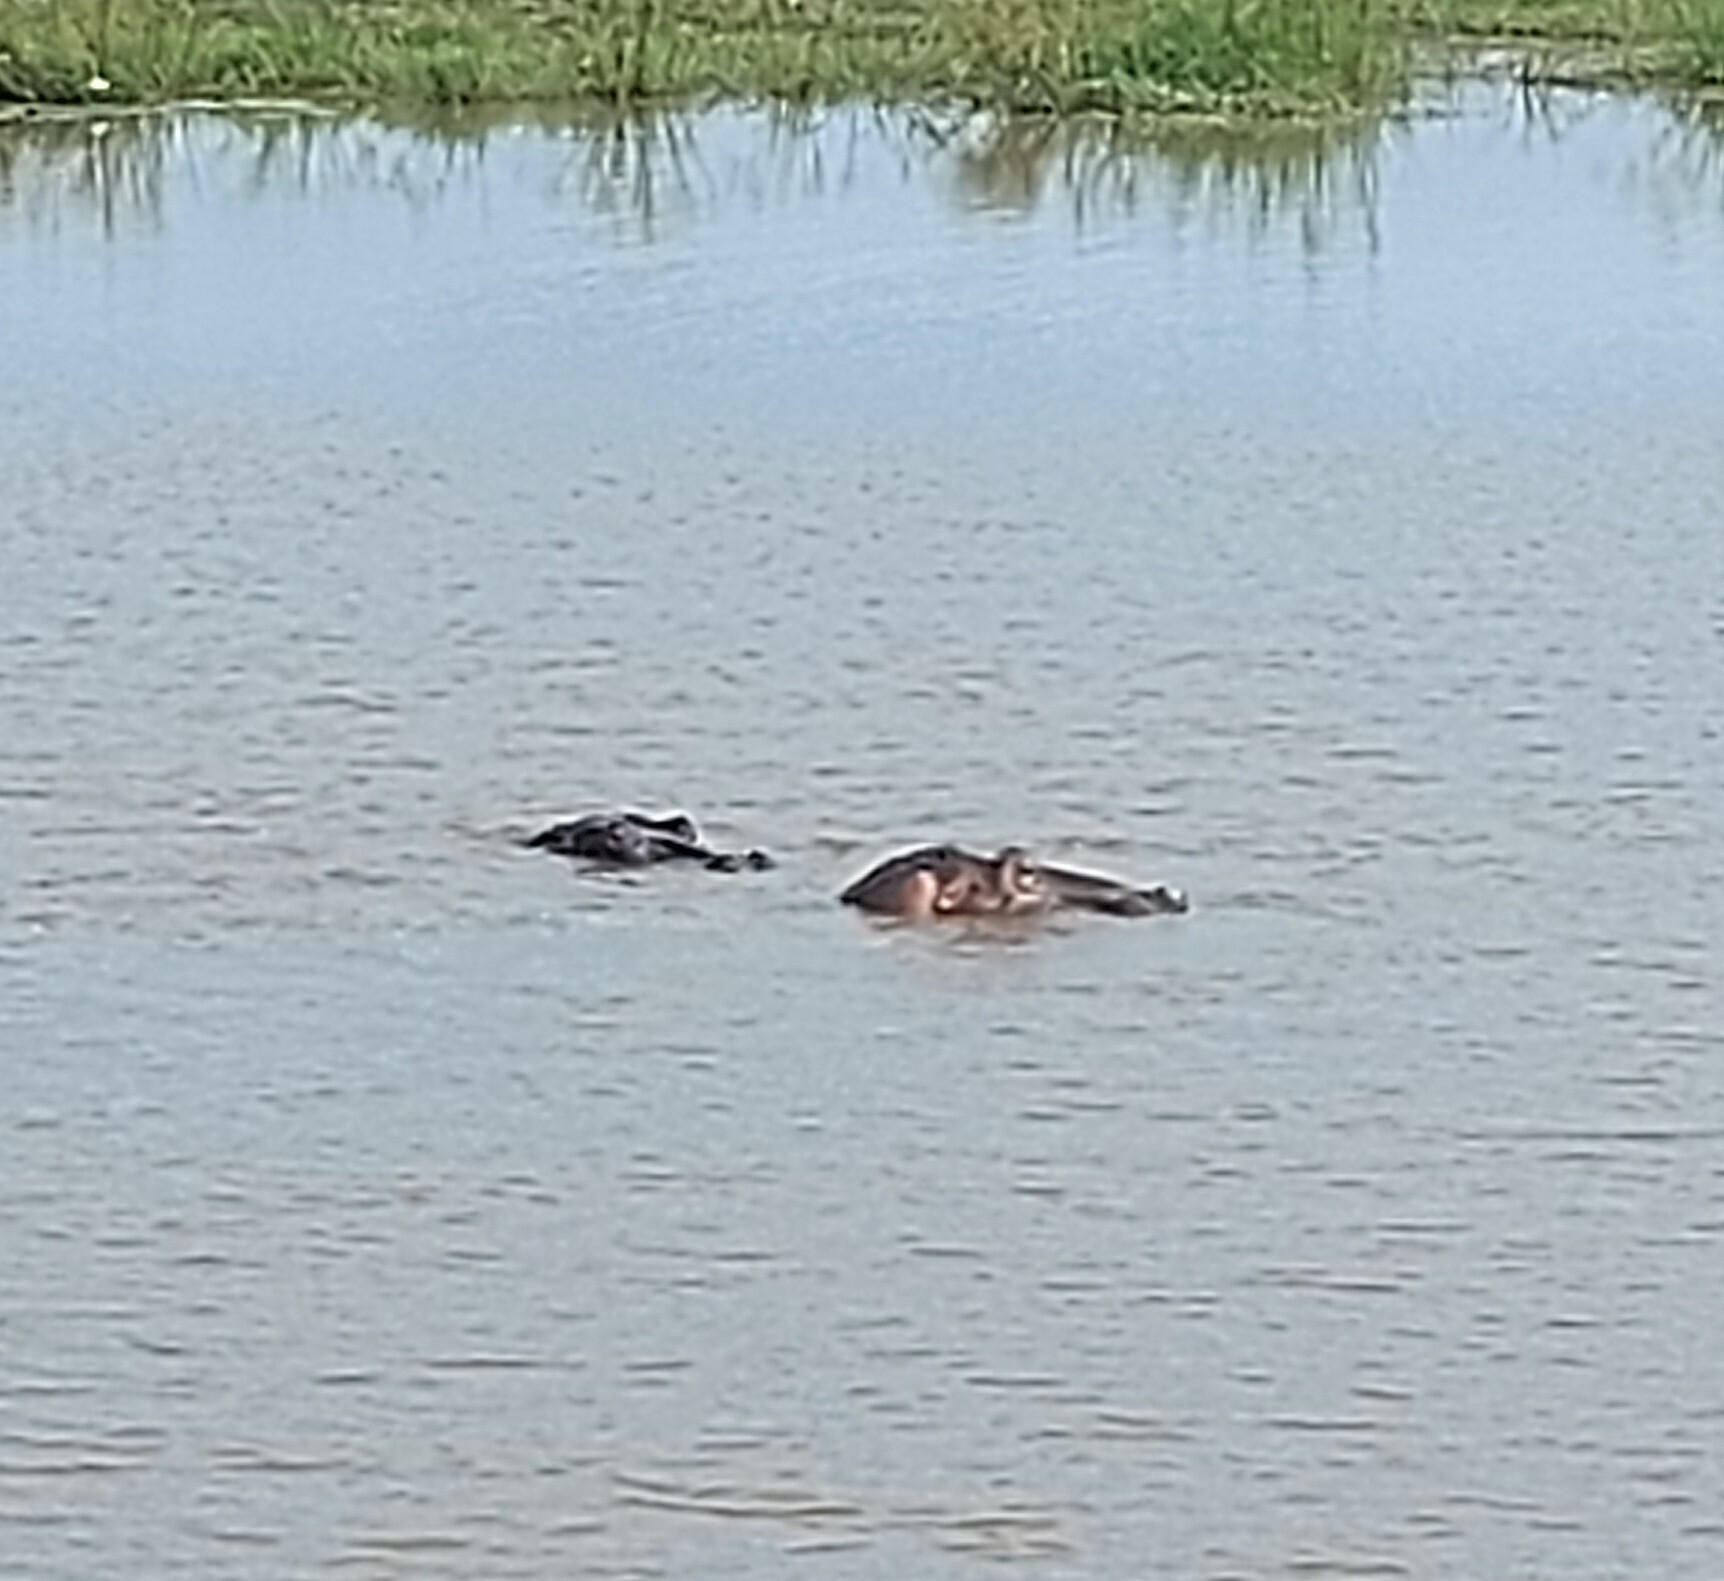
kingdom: Animalia
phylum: Chordata
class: Mammalia
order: Artiodactyla
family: Hippopotamidae
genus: Hippopotamus
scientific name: Hippopotamus amphibius
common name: Common hippopotamus
